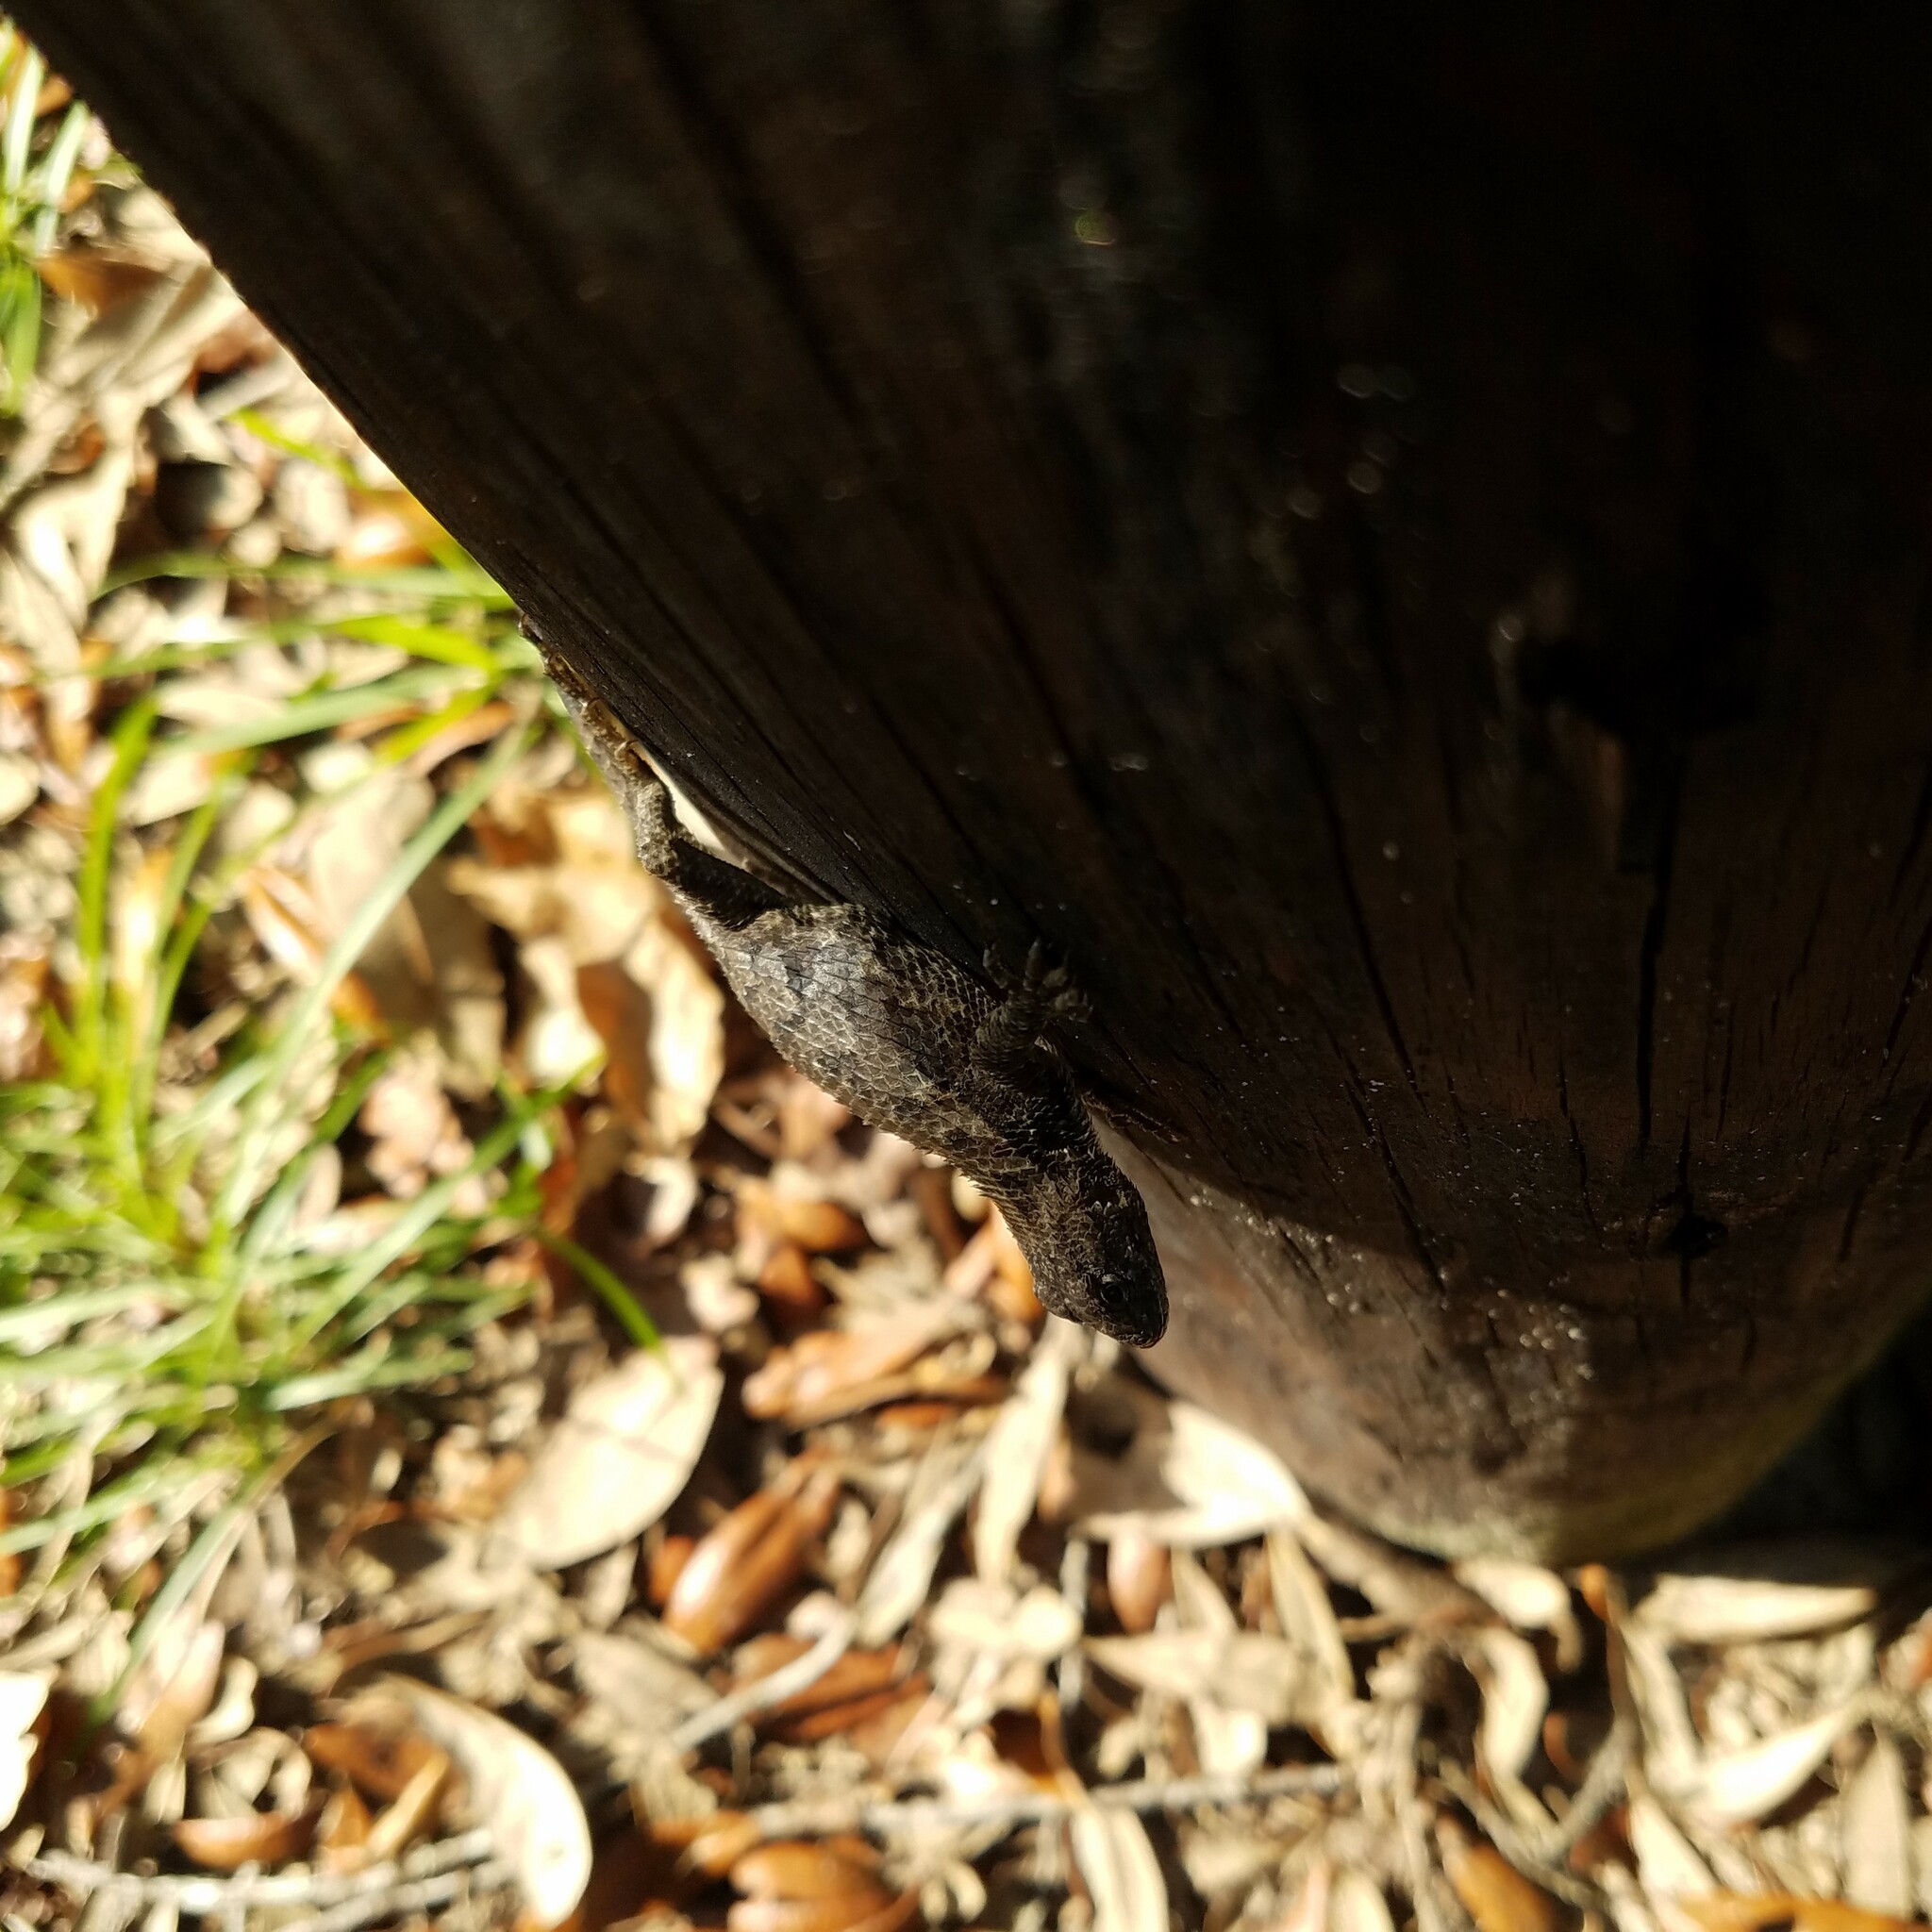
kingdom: Animalia
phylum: Chordata
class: Squamata
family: Phrynosomatidae
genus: Sceloporus
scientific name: Sceloporus undulatus
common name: Eastern fence lizard
